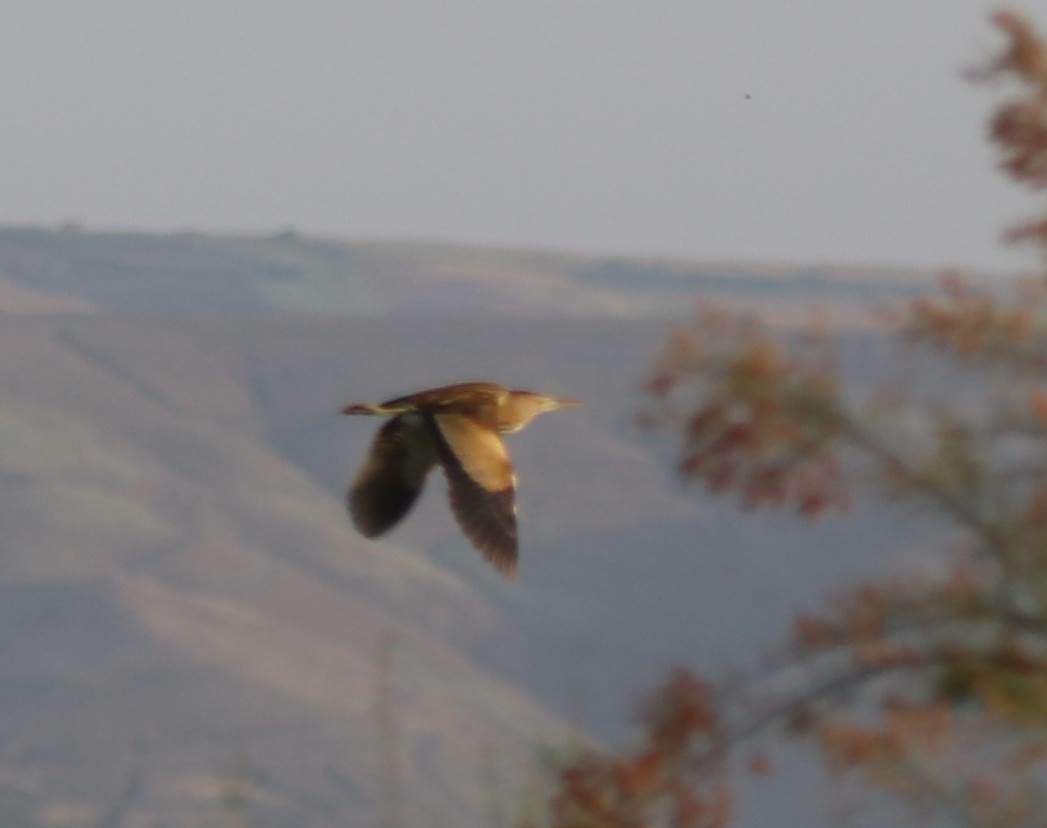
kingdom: Animalia
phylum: Chordata
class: Aves
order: Pelecaniformes
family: Ardeidae
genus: Ixobrychus
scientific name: Ixobrychus minutus
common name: Little bittern
